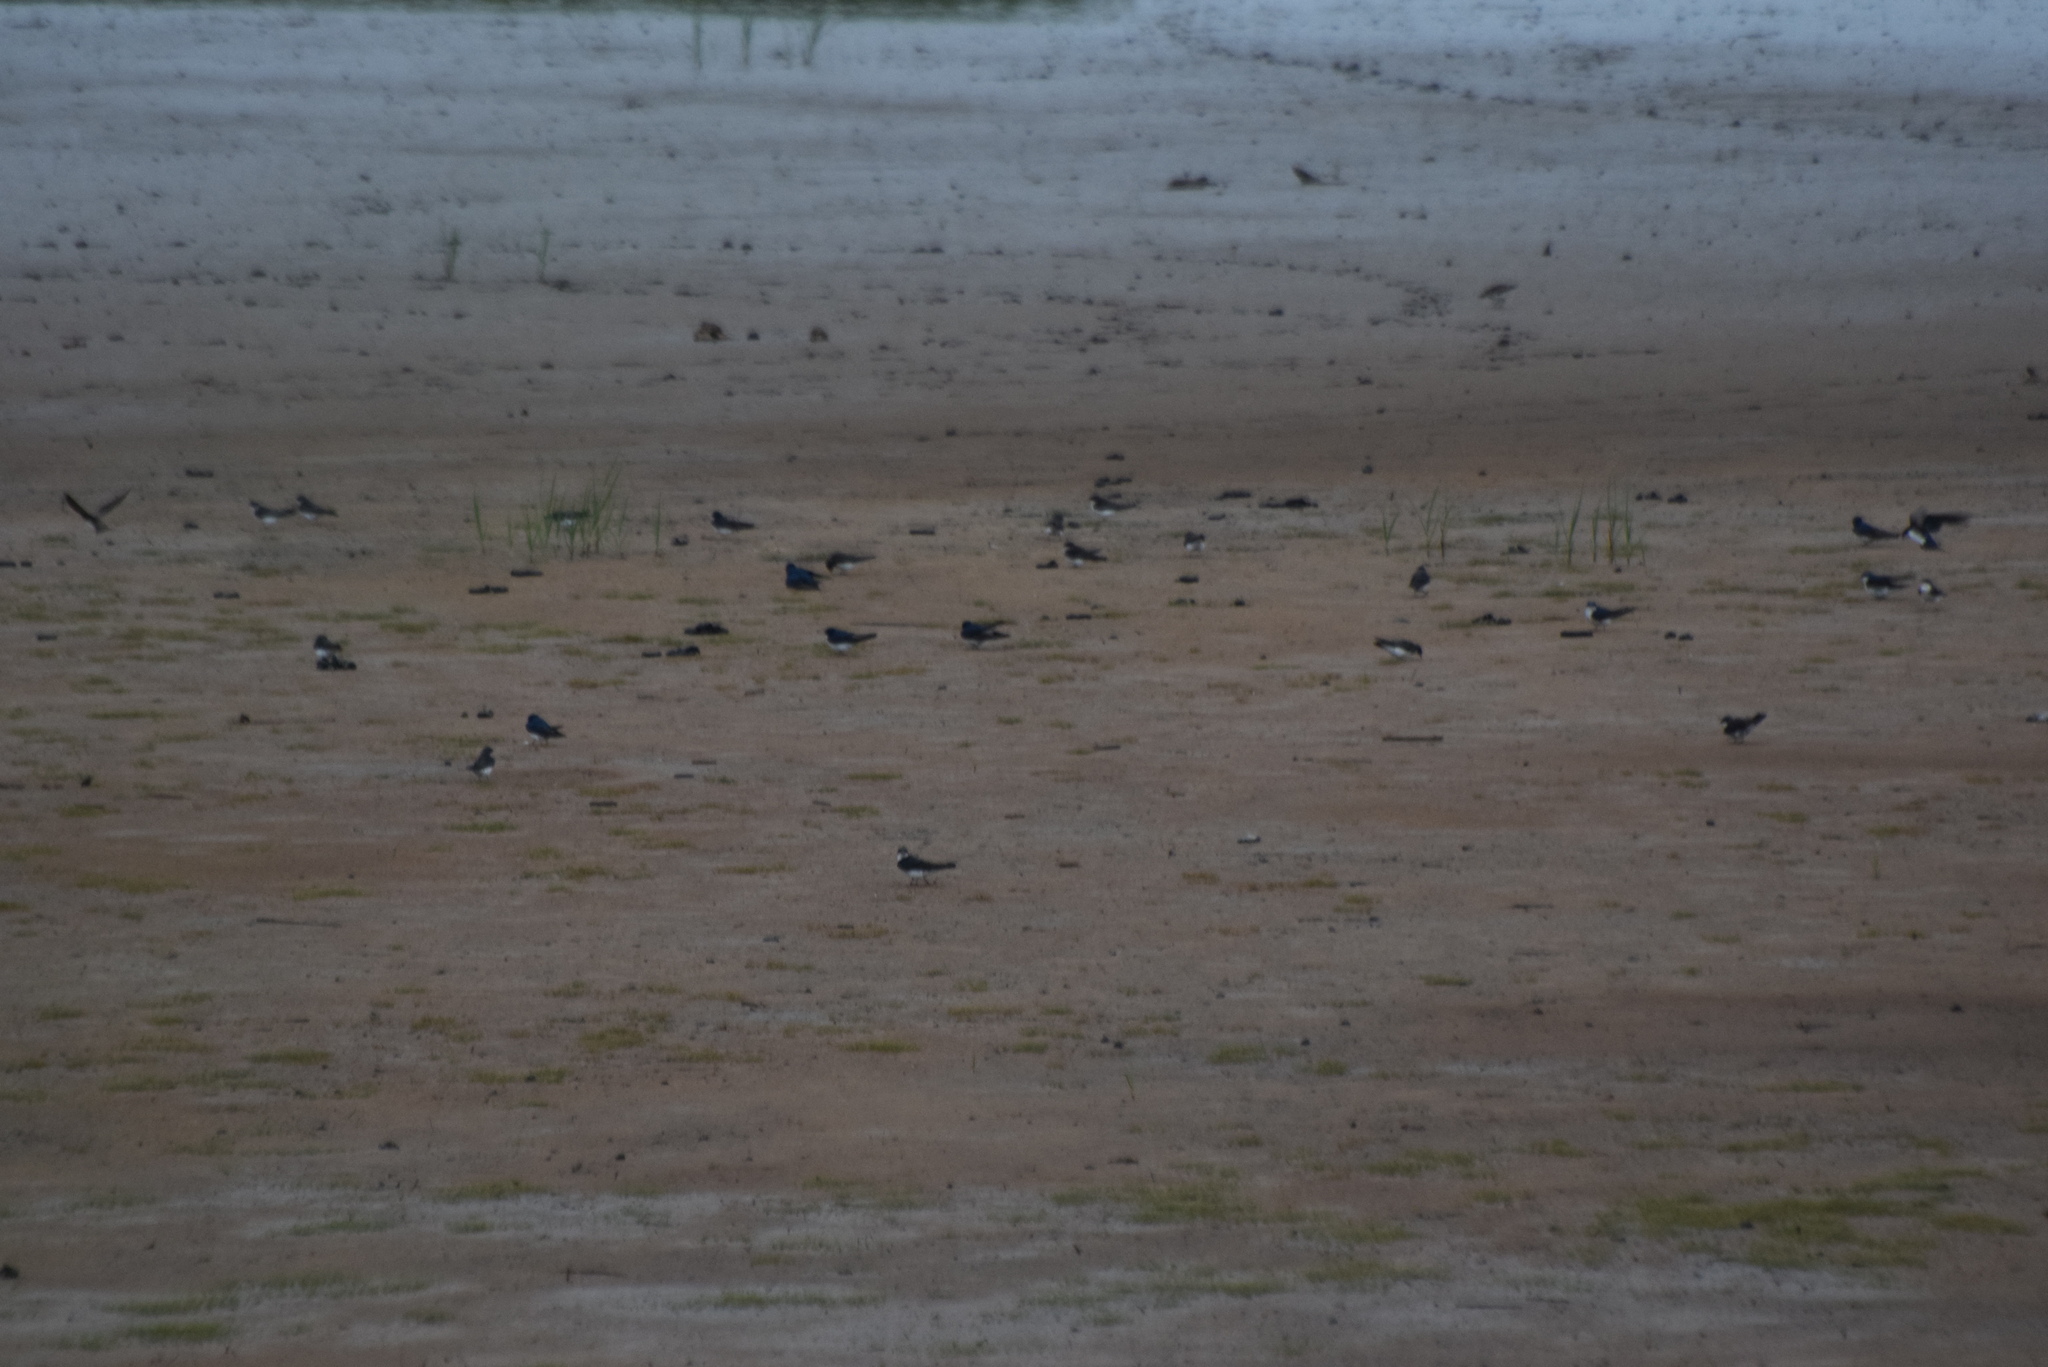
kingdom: Animalia
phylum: Chordata
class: Aves
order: Passeriformes
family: Hirundinidae
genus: Tachycineta
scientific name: Tachycineta bicolor
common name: Tree swallow
